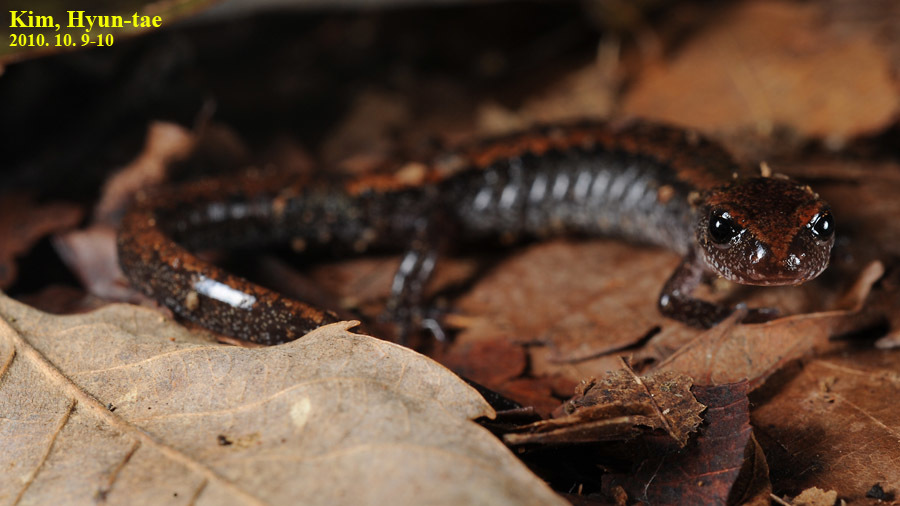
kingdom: Animalia
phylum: Chordata
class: Amphibia
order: Caudata
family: Plethodontidae
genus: Karsenia
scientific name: Karsenia koreana
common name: Korean crevice salamander
